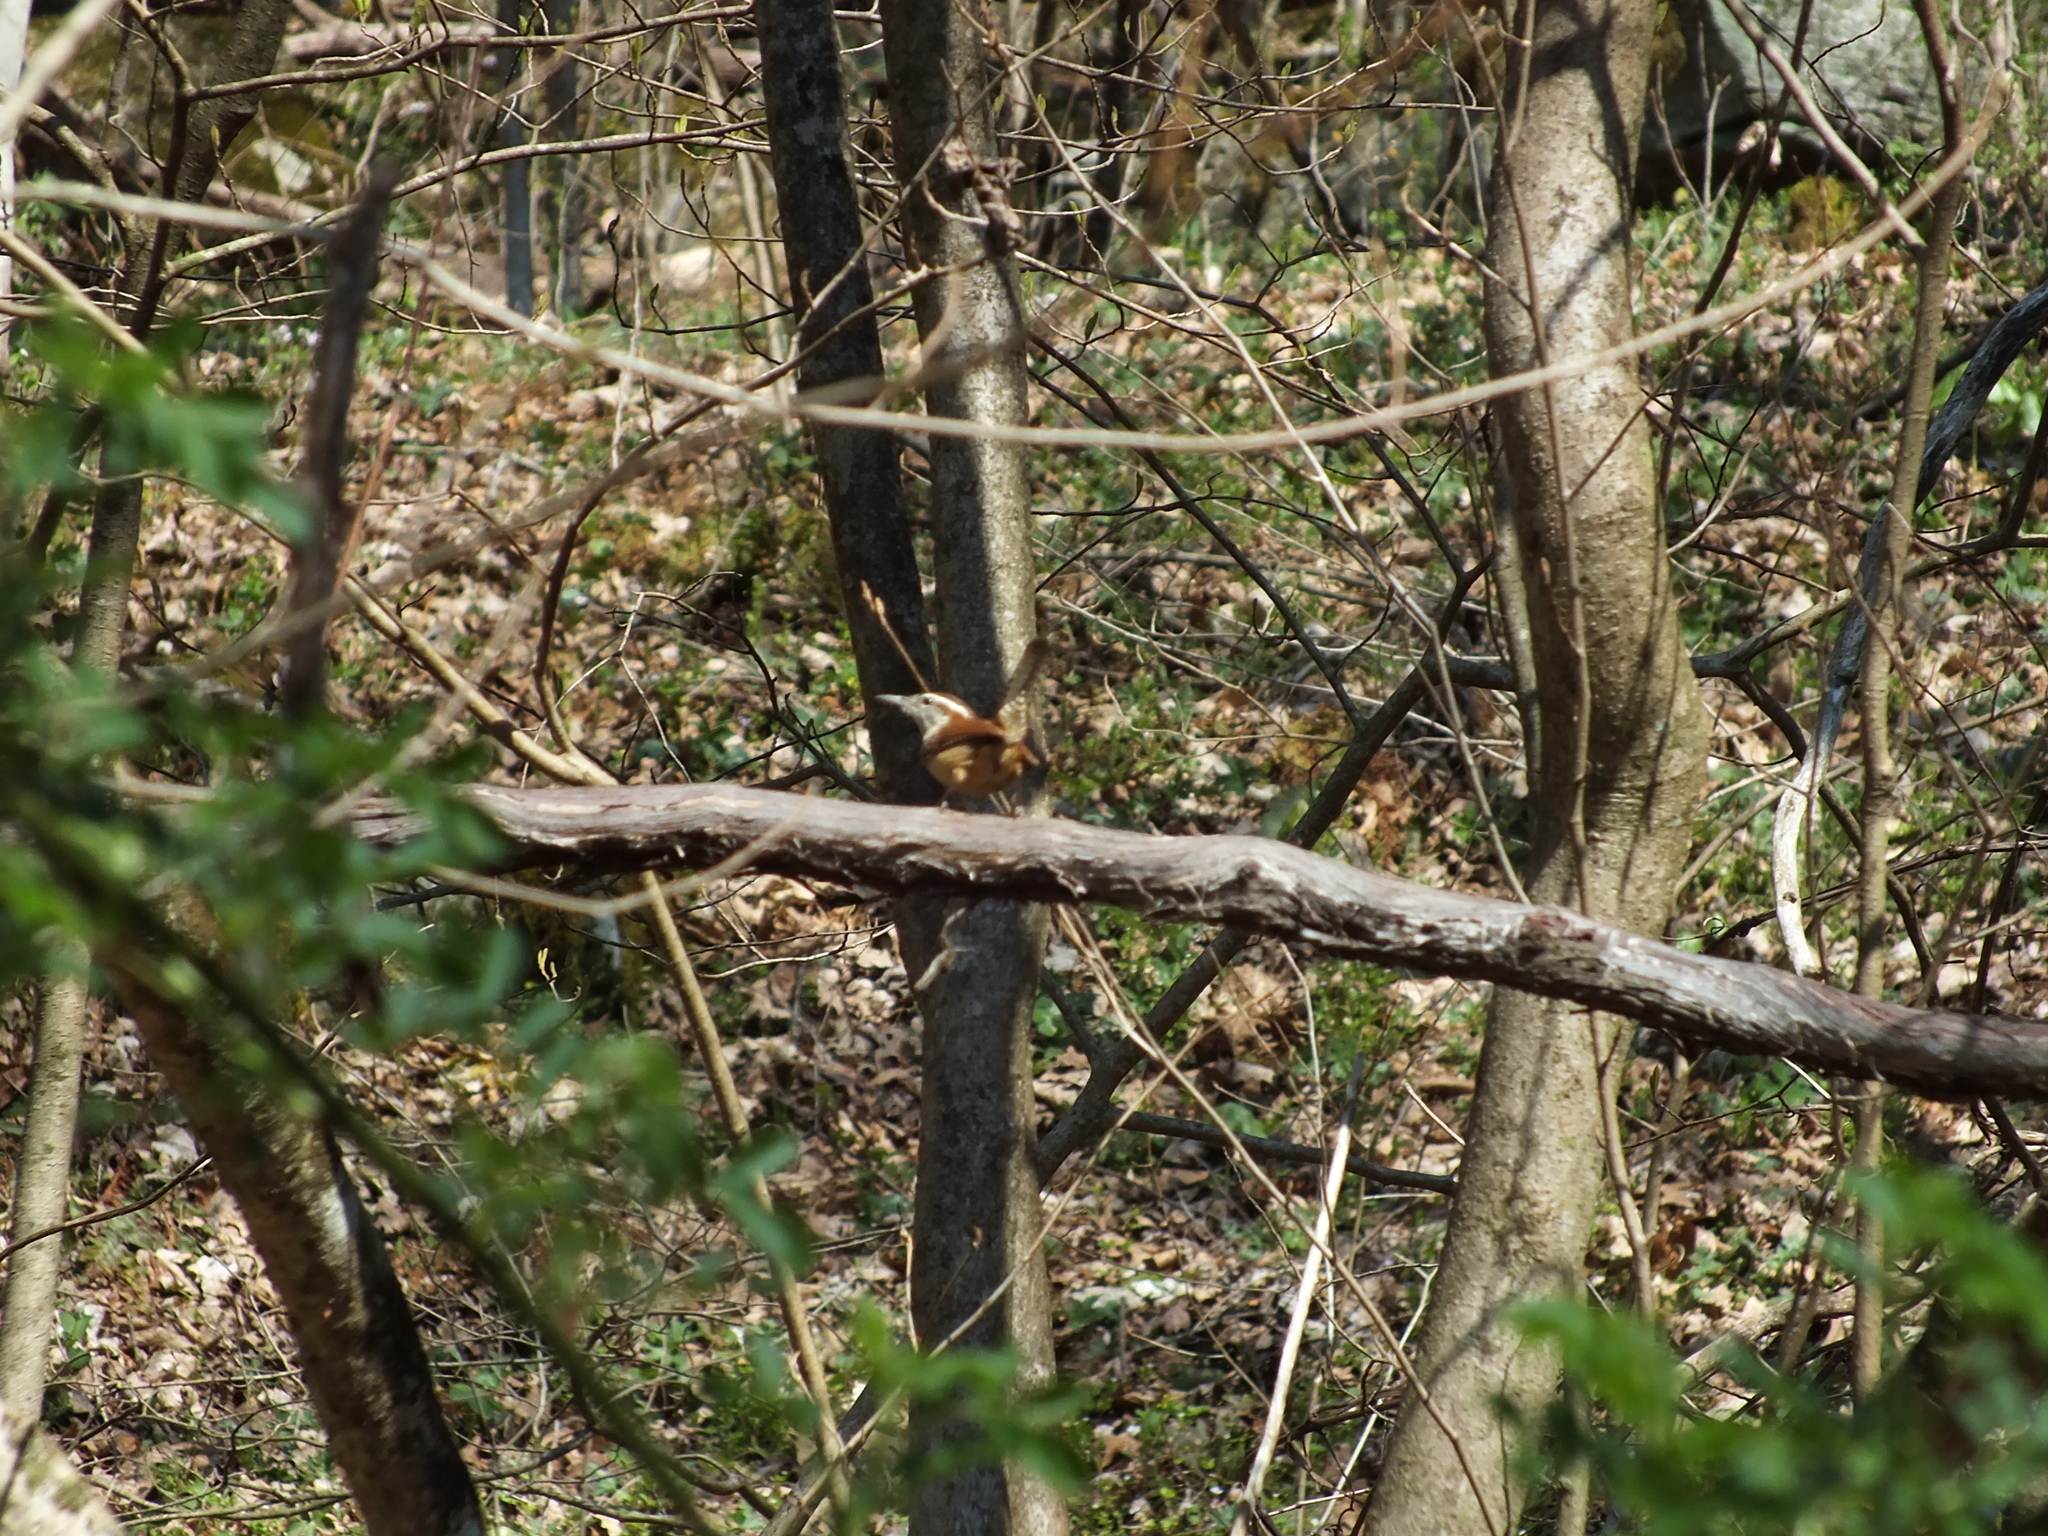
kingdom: Animalia
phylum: Chordata
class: Aves
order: Passeriformes
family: Troglodytidae
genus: Thryothorus
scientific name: Thryothorus ludovicianus
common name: Carolina wren
